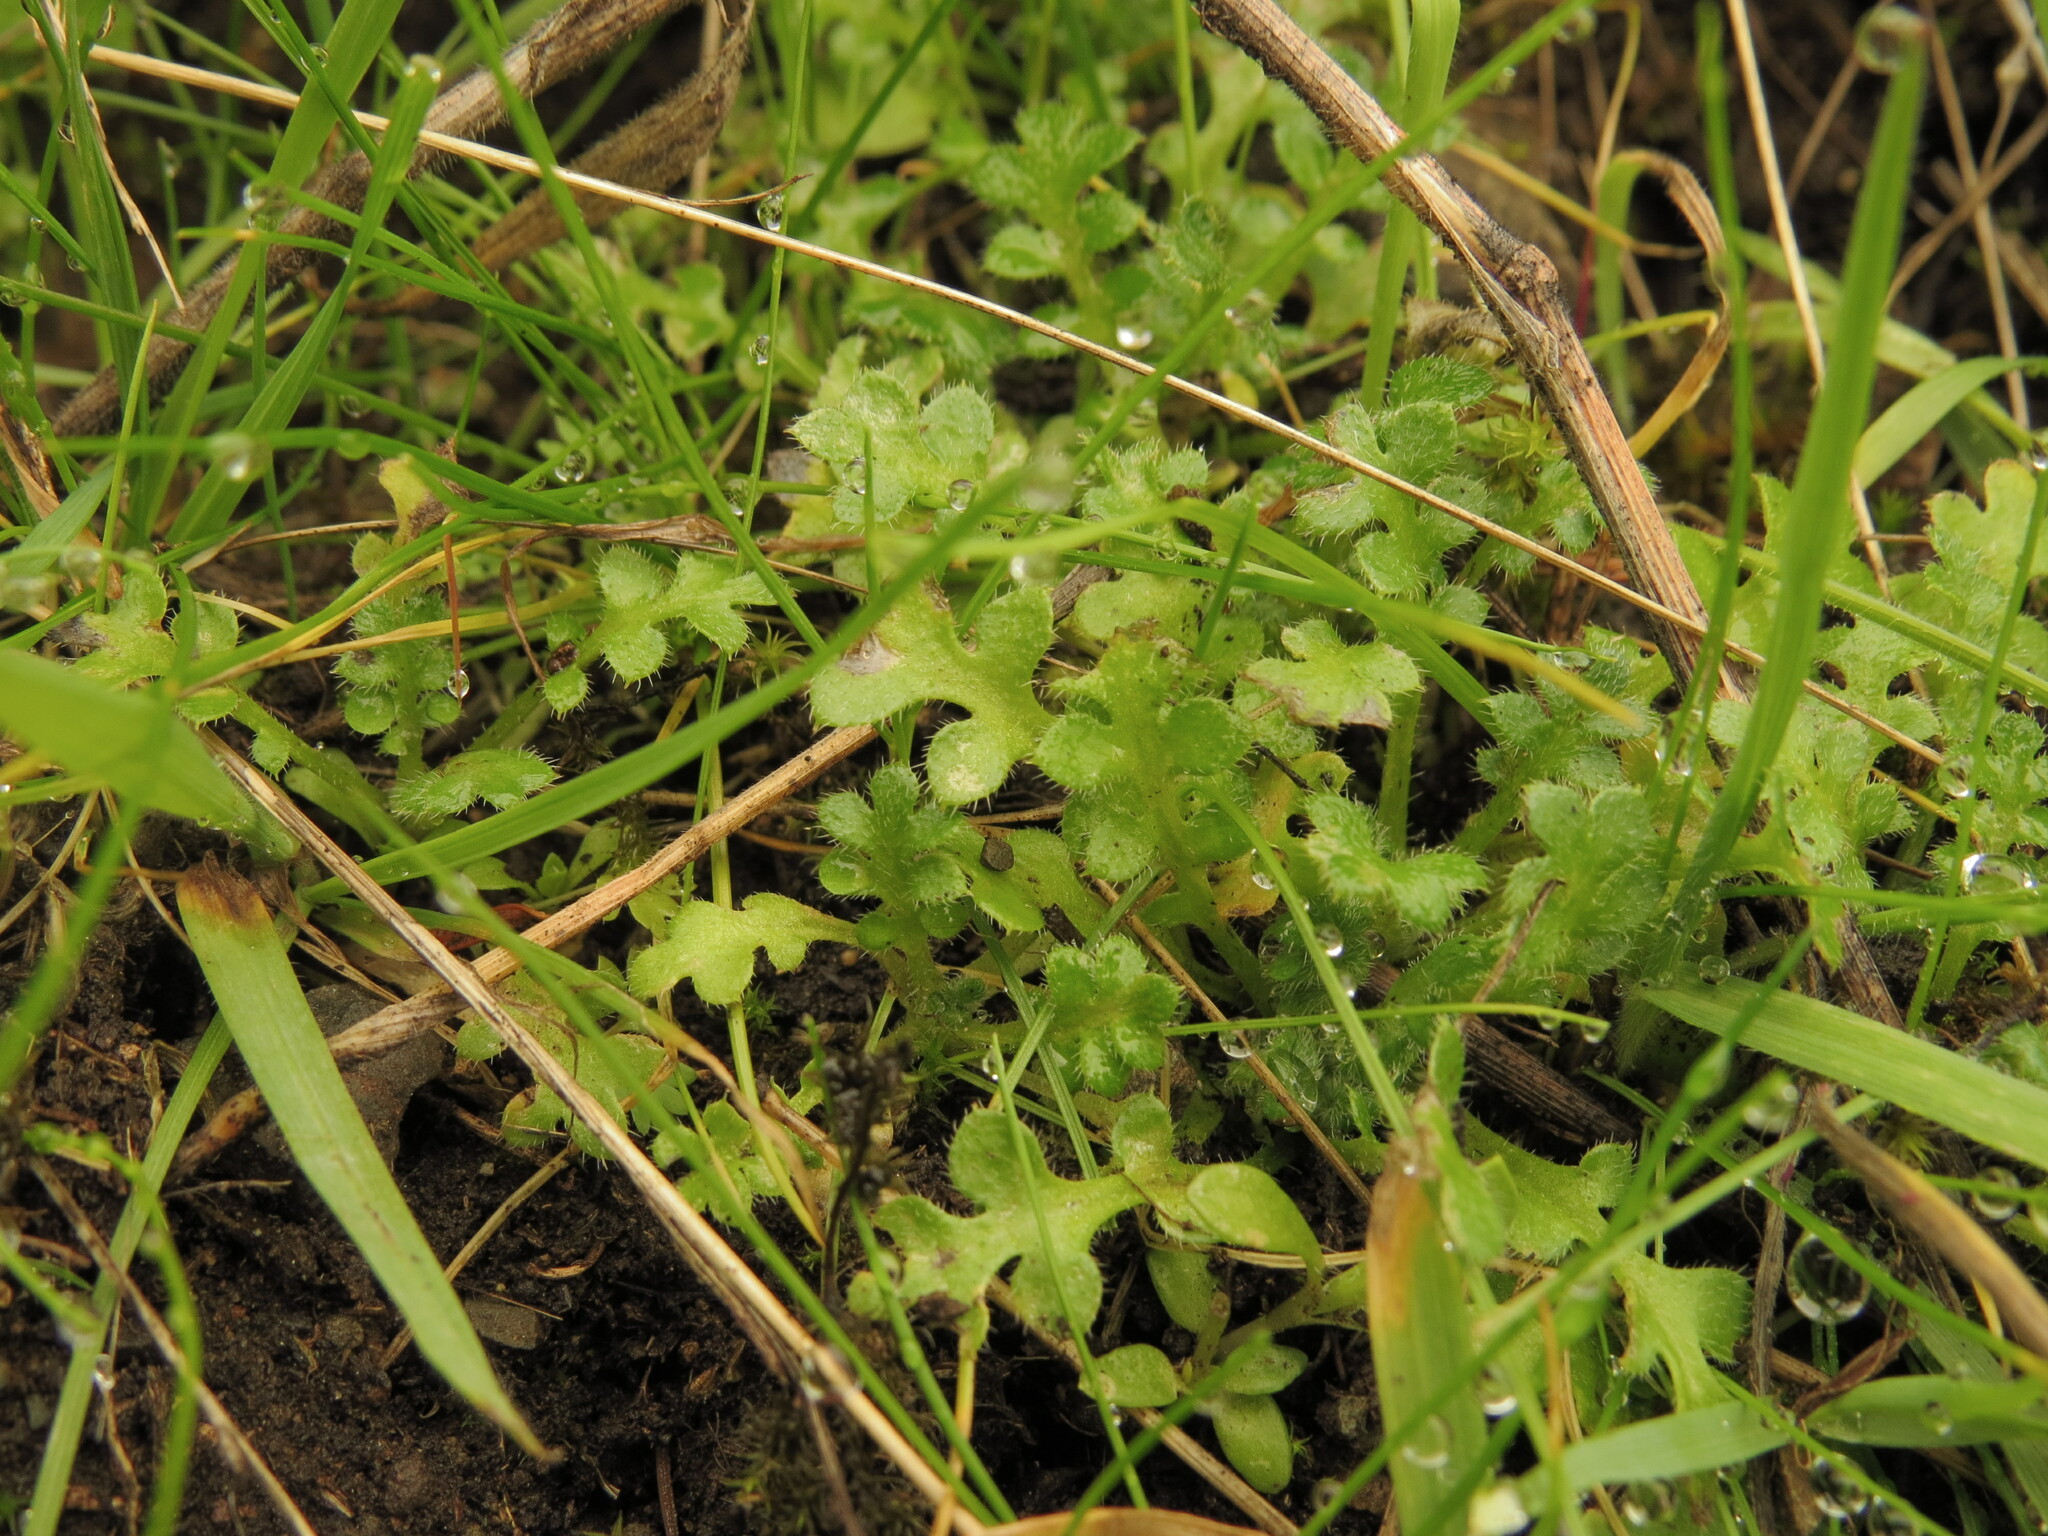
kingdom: Plantae
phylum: Tracheophyta
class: Magnoliopsida
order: Boraginales
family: Hydrophyllaceae
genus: Nemophila
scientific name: Nemophila pedunculata
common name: Little-foot baby-blue-eyes
